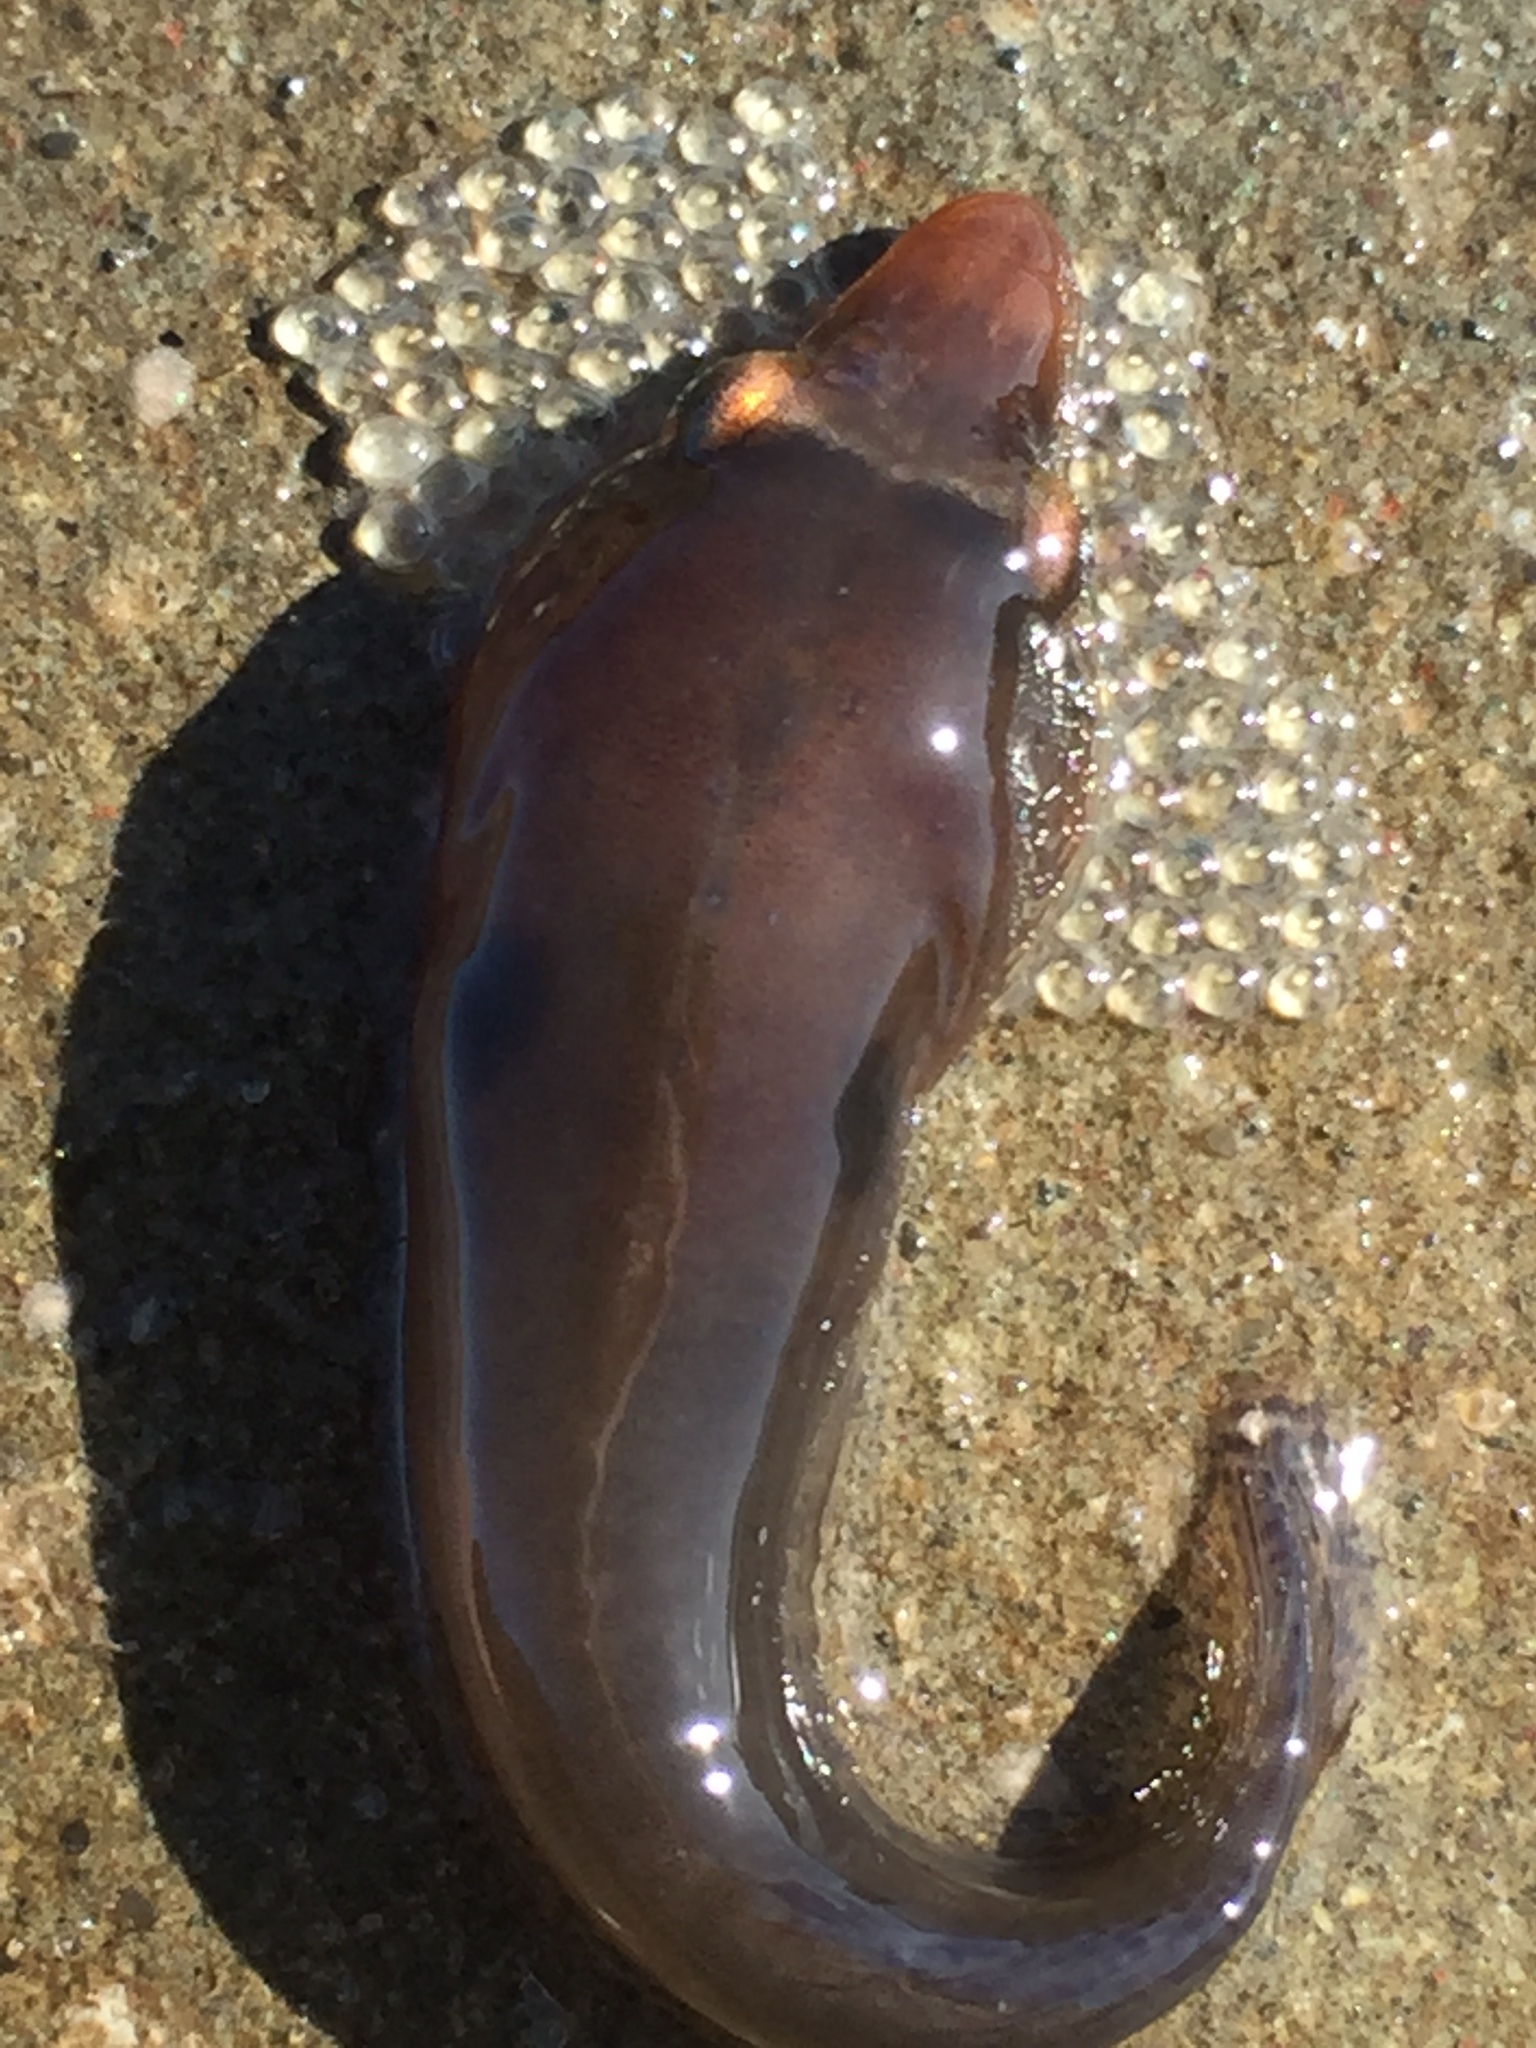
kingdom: Animalia
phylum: Chordata
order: Gobiesociformes
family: Gobiesocidae
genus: Dellichthys
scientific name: Dellichthys morelandi
